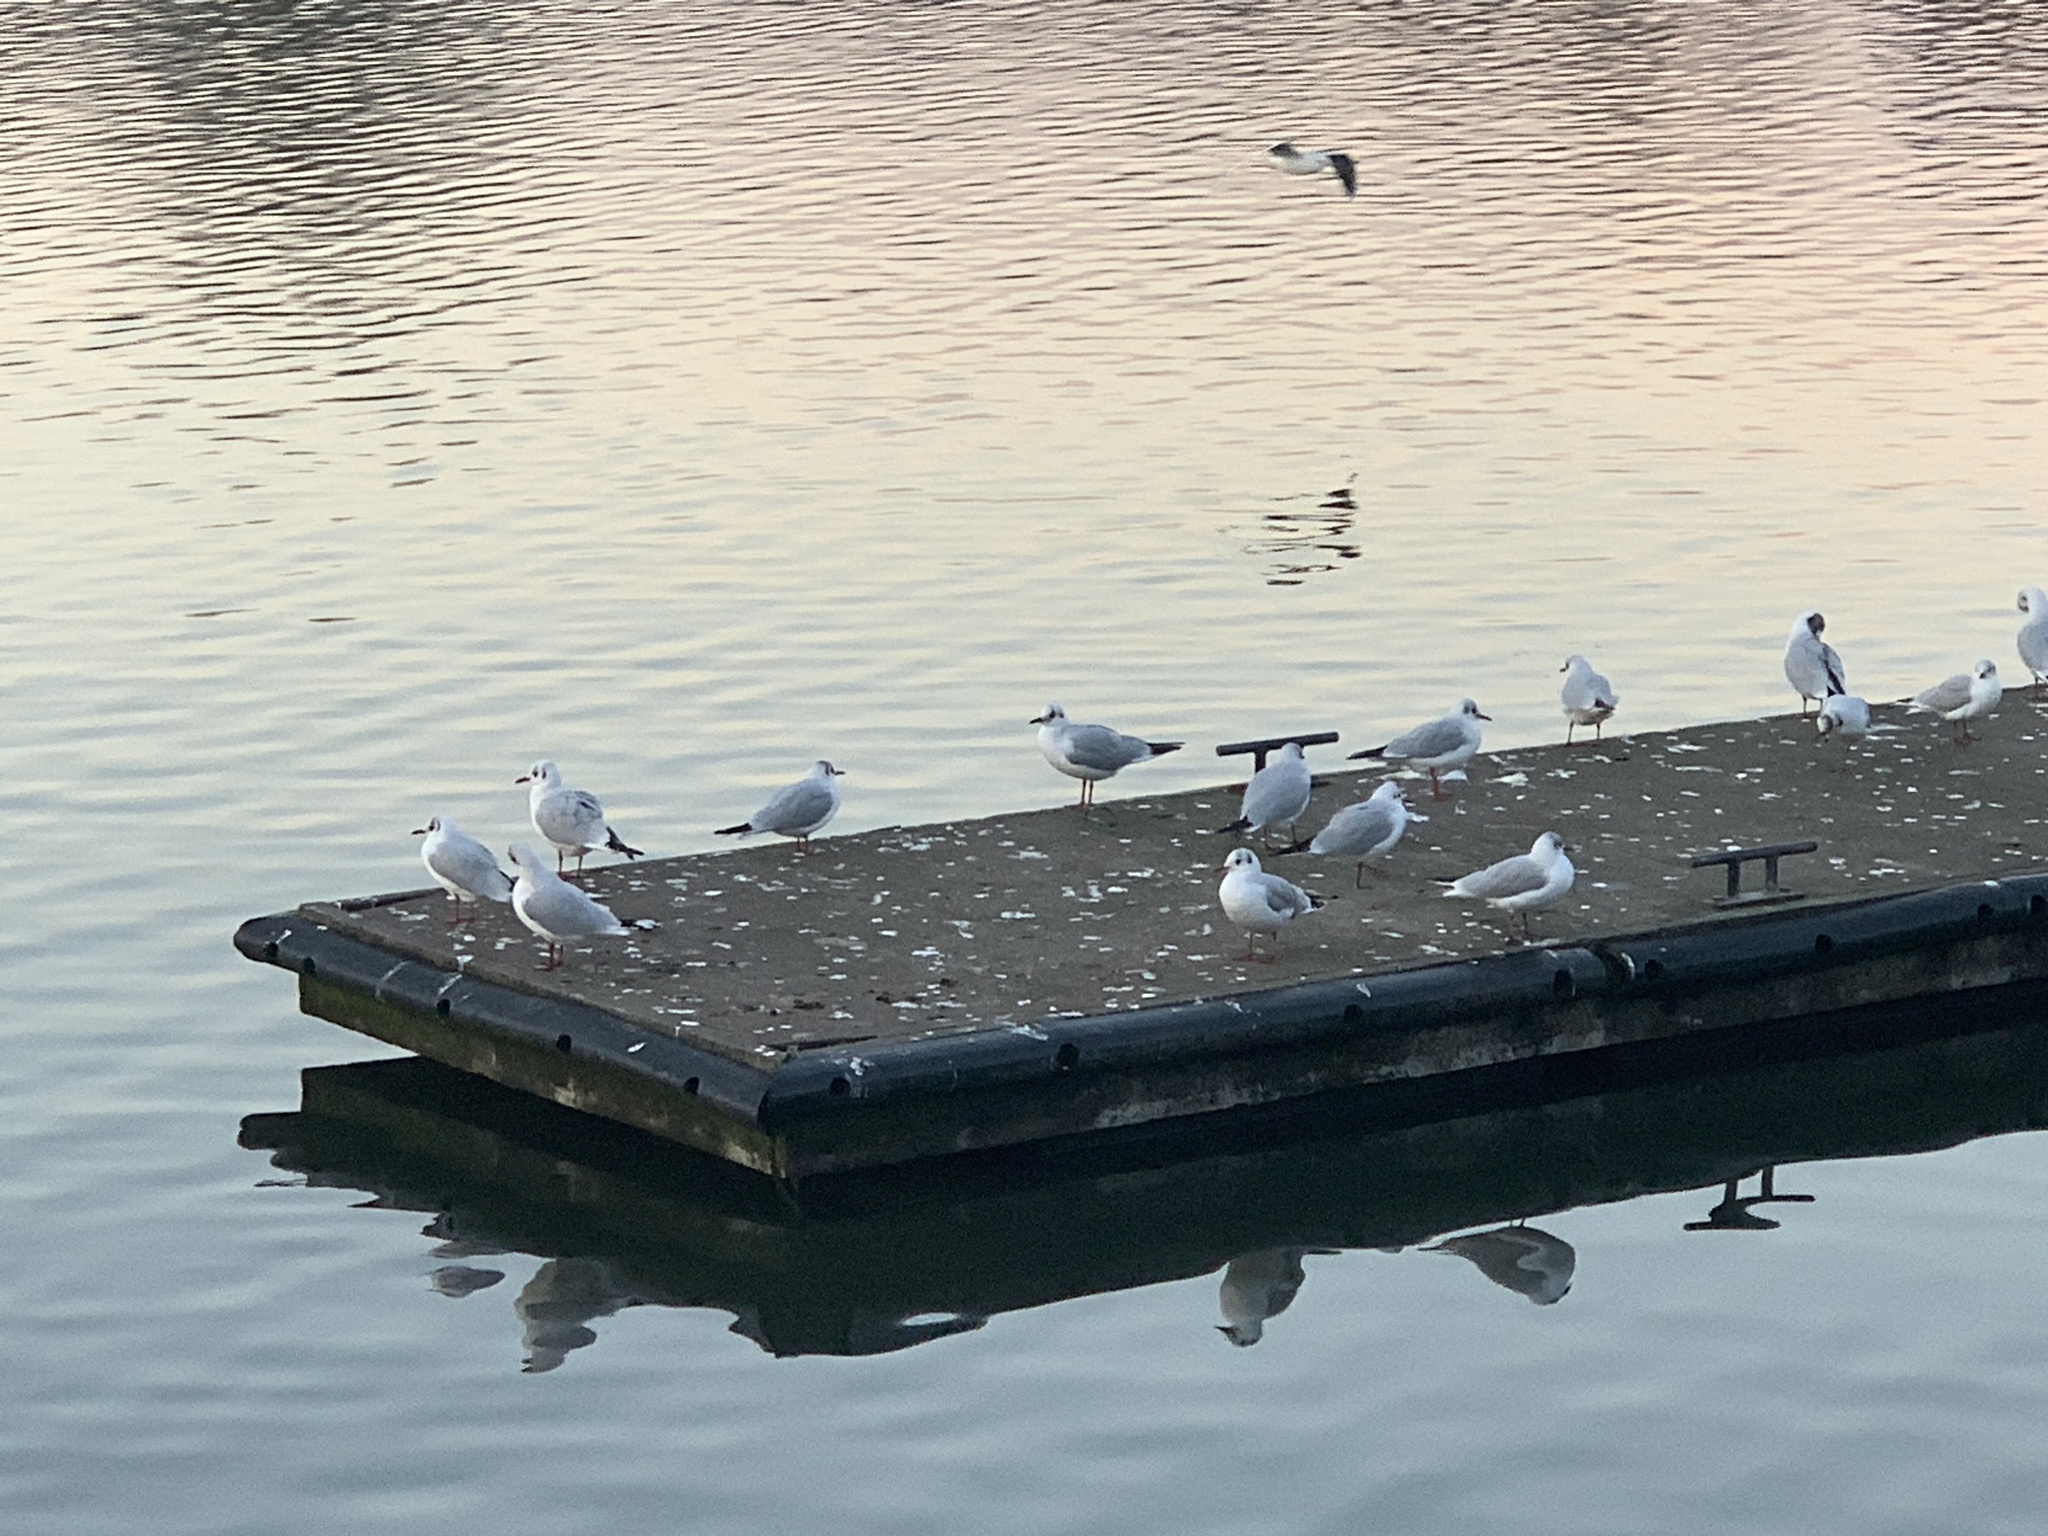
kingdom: Animalia
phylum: Chordata
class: Aves
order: Charadriiformes
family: Laridae
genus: Chroicocephalus
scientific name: Chroicocephalus ridibundus
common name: Black-headed gull
